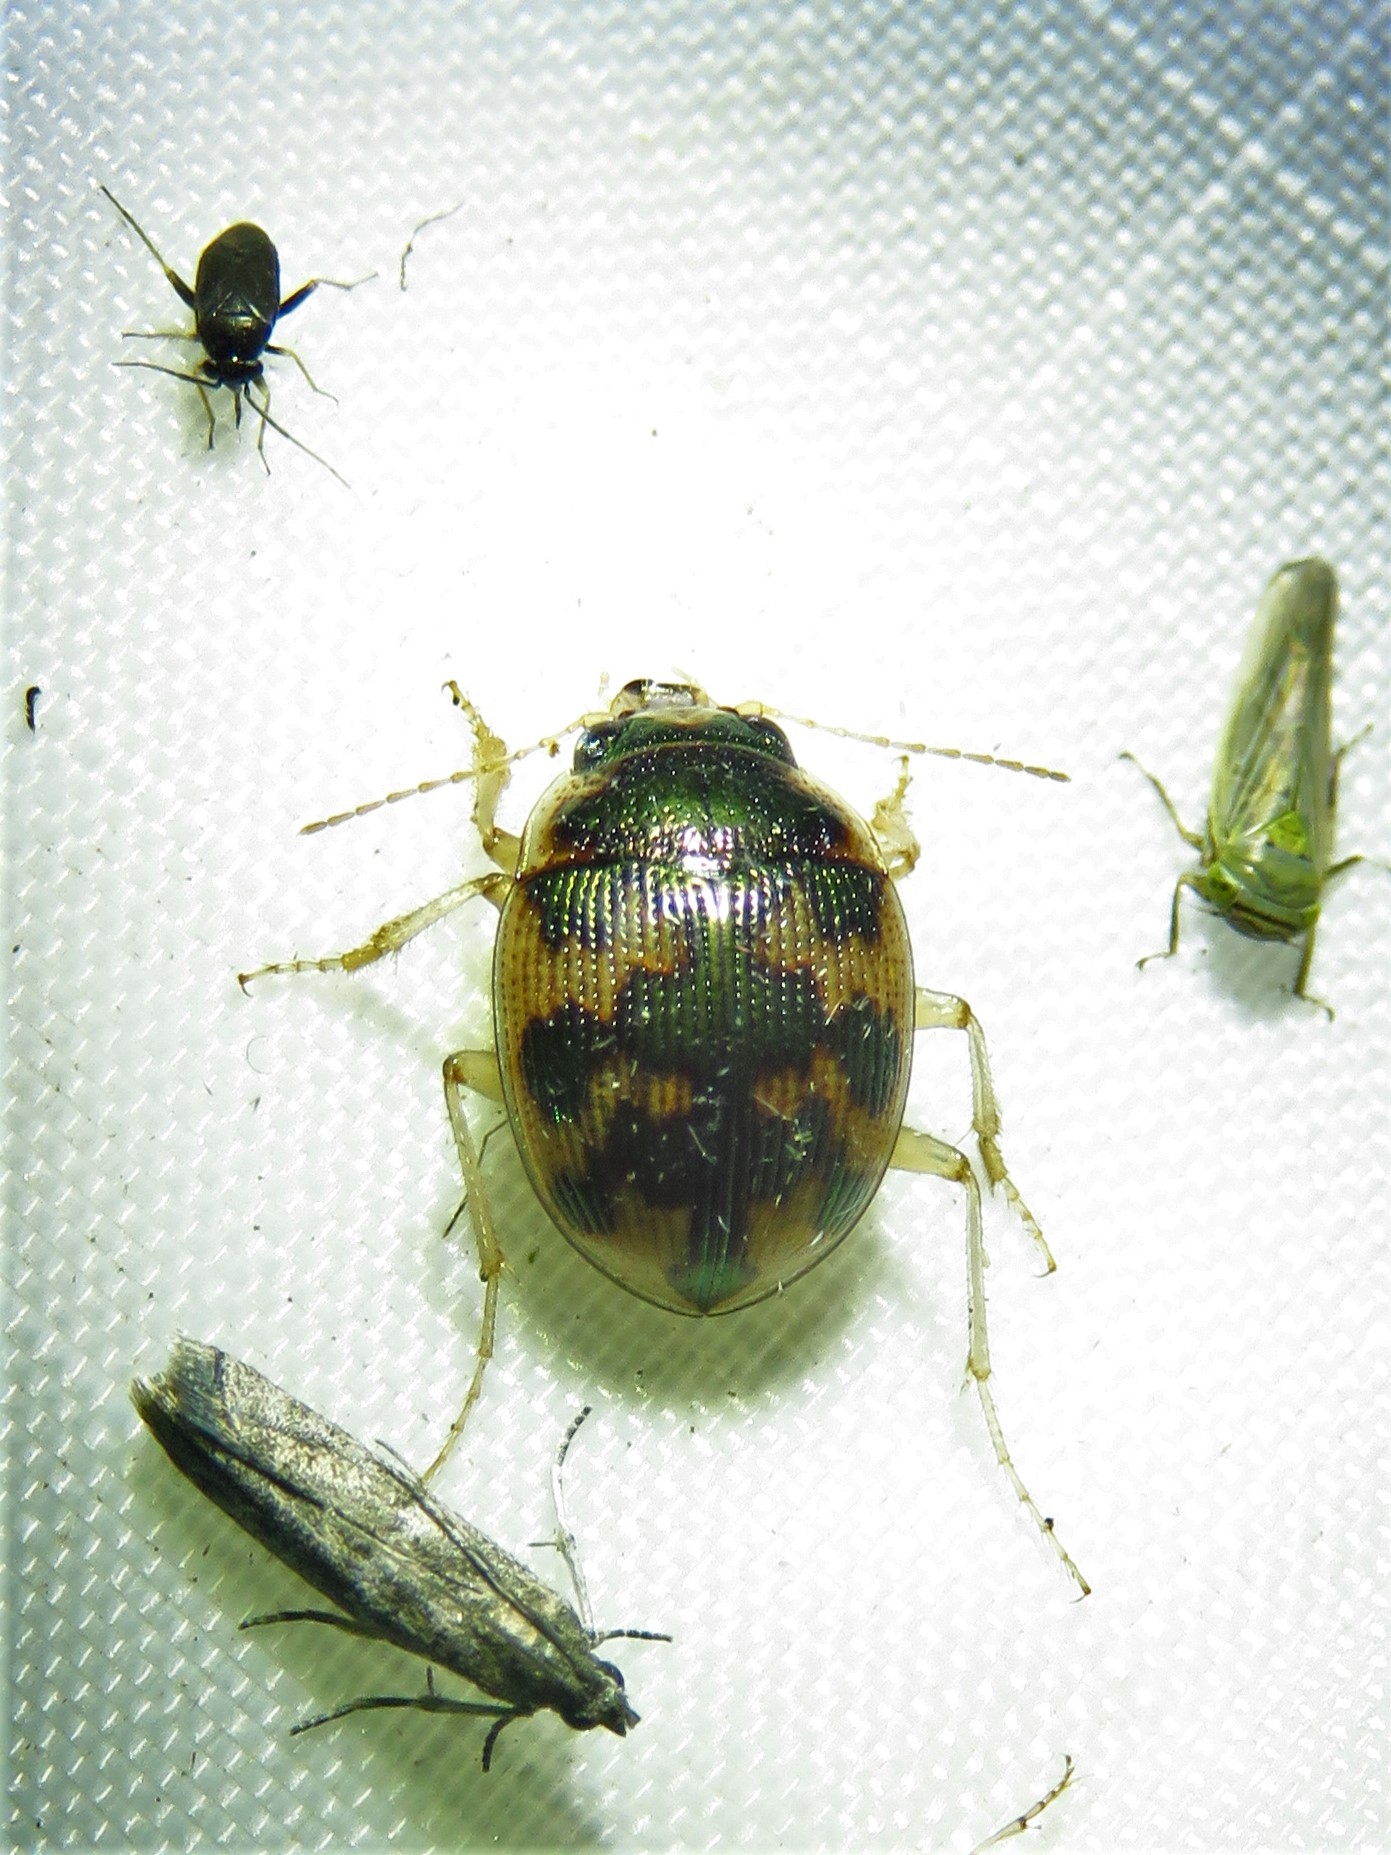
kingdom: Animalia
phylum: Arthropoda
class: Insecta
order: Coleoptera
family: Carabidae
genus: Omophron
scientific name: Omophron americanum
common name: American round sand beetle
